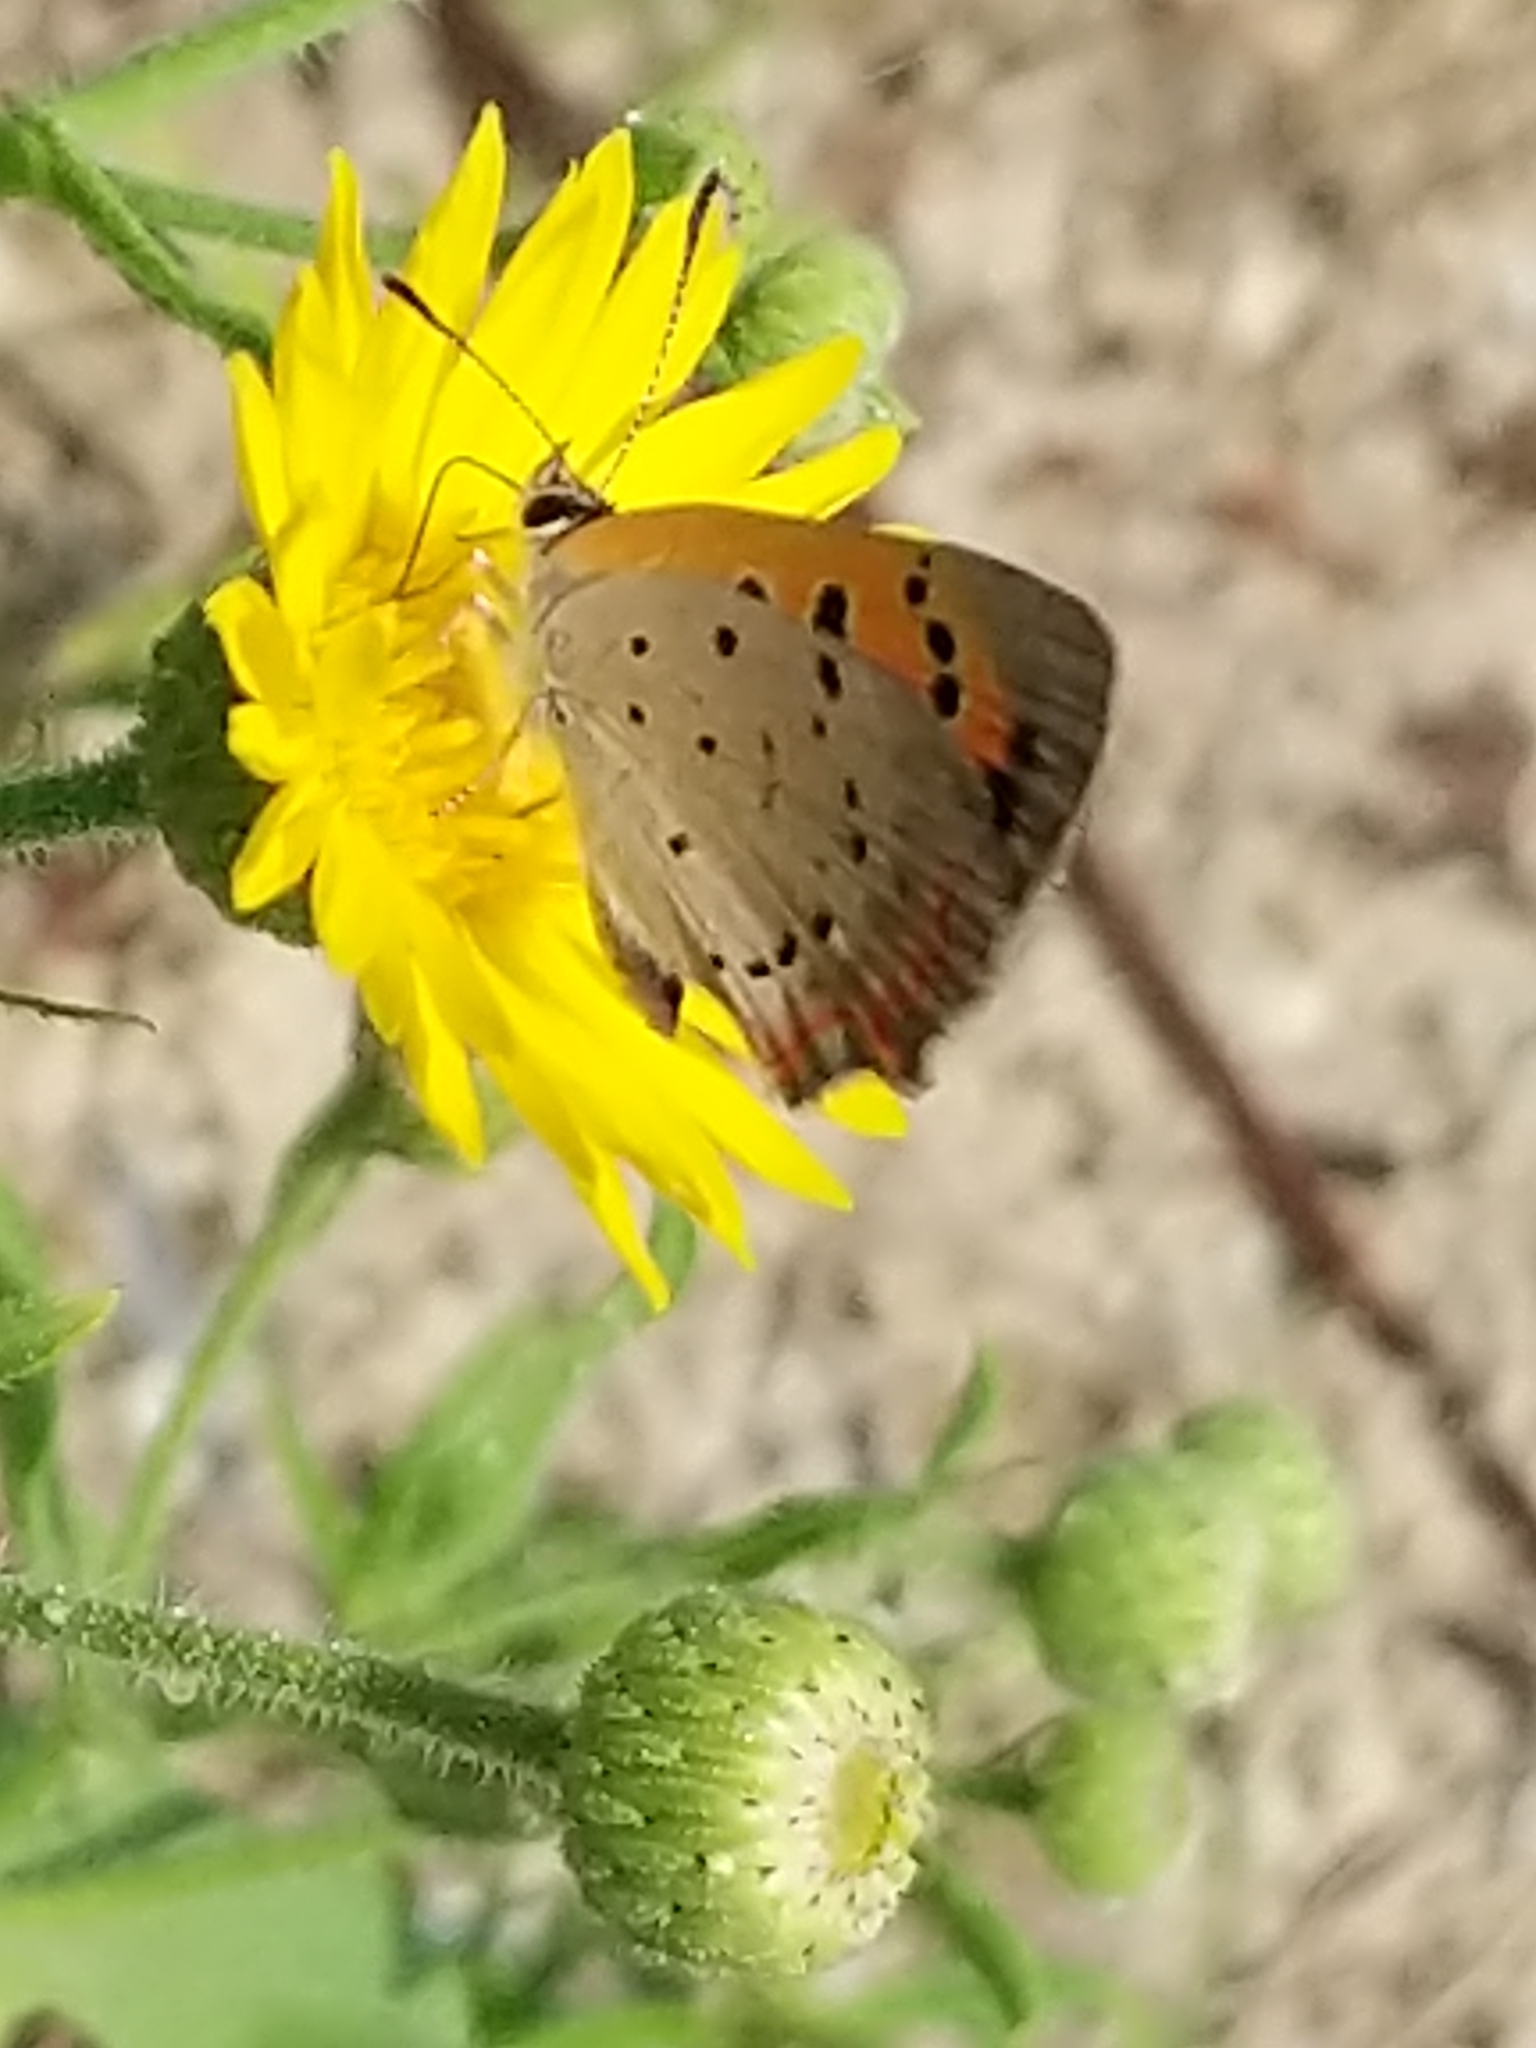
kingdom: Animalia
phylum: Arthropoda
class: Insecta
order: Lepidoptera
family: Lycaenidae
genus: Lycaena
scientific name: Lycaena hypophlaeas
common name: American copper
